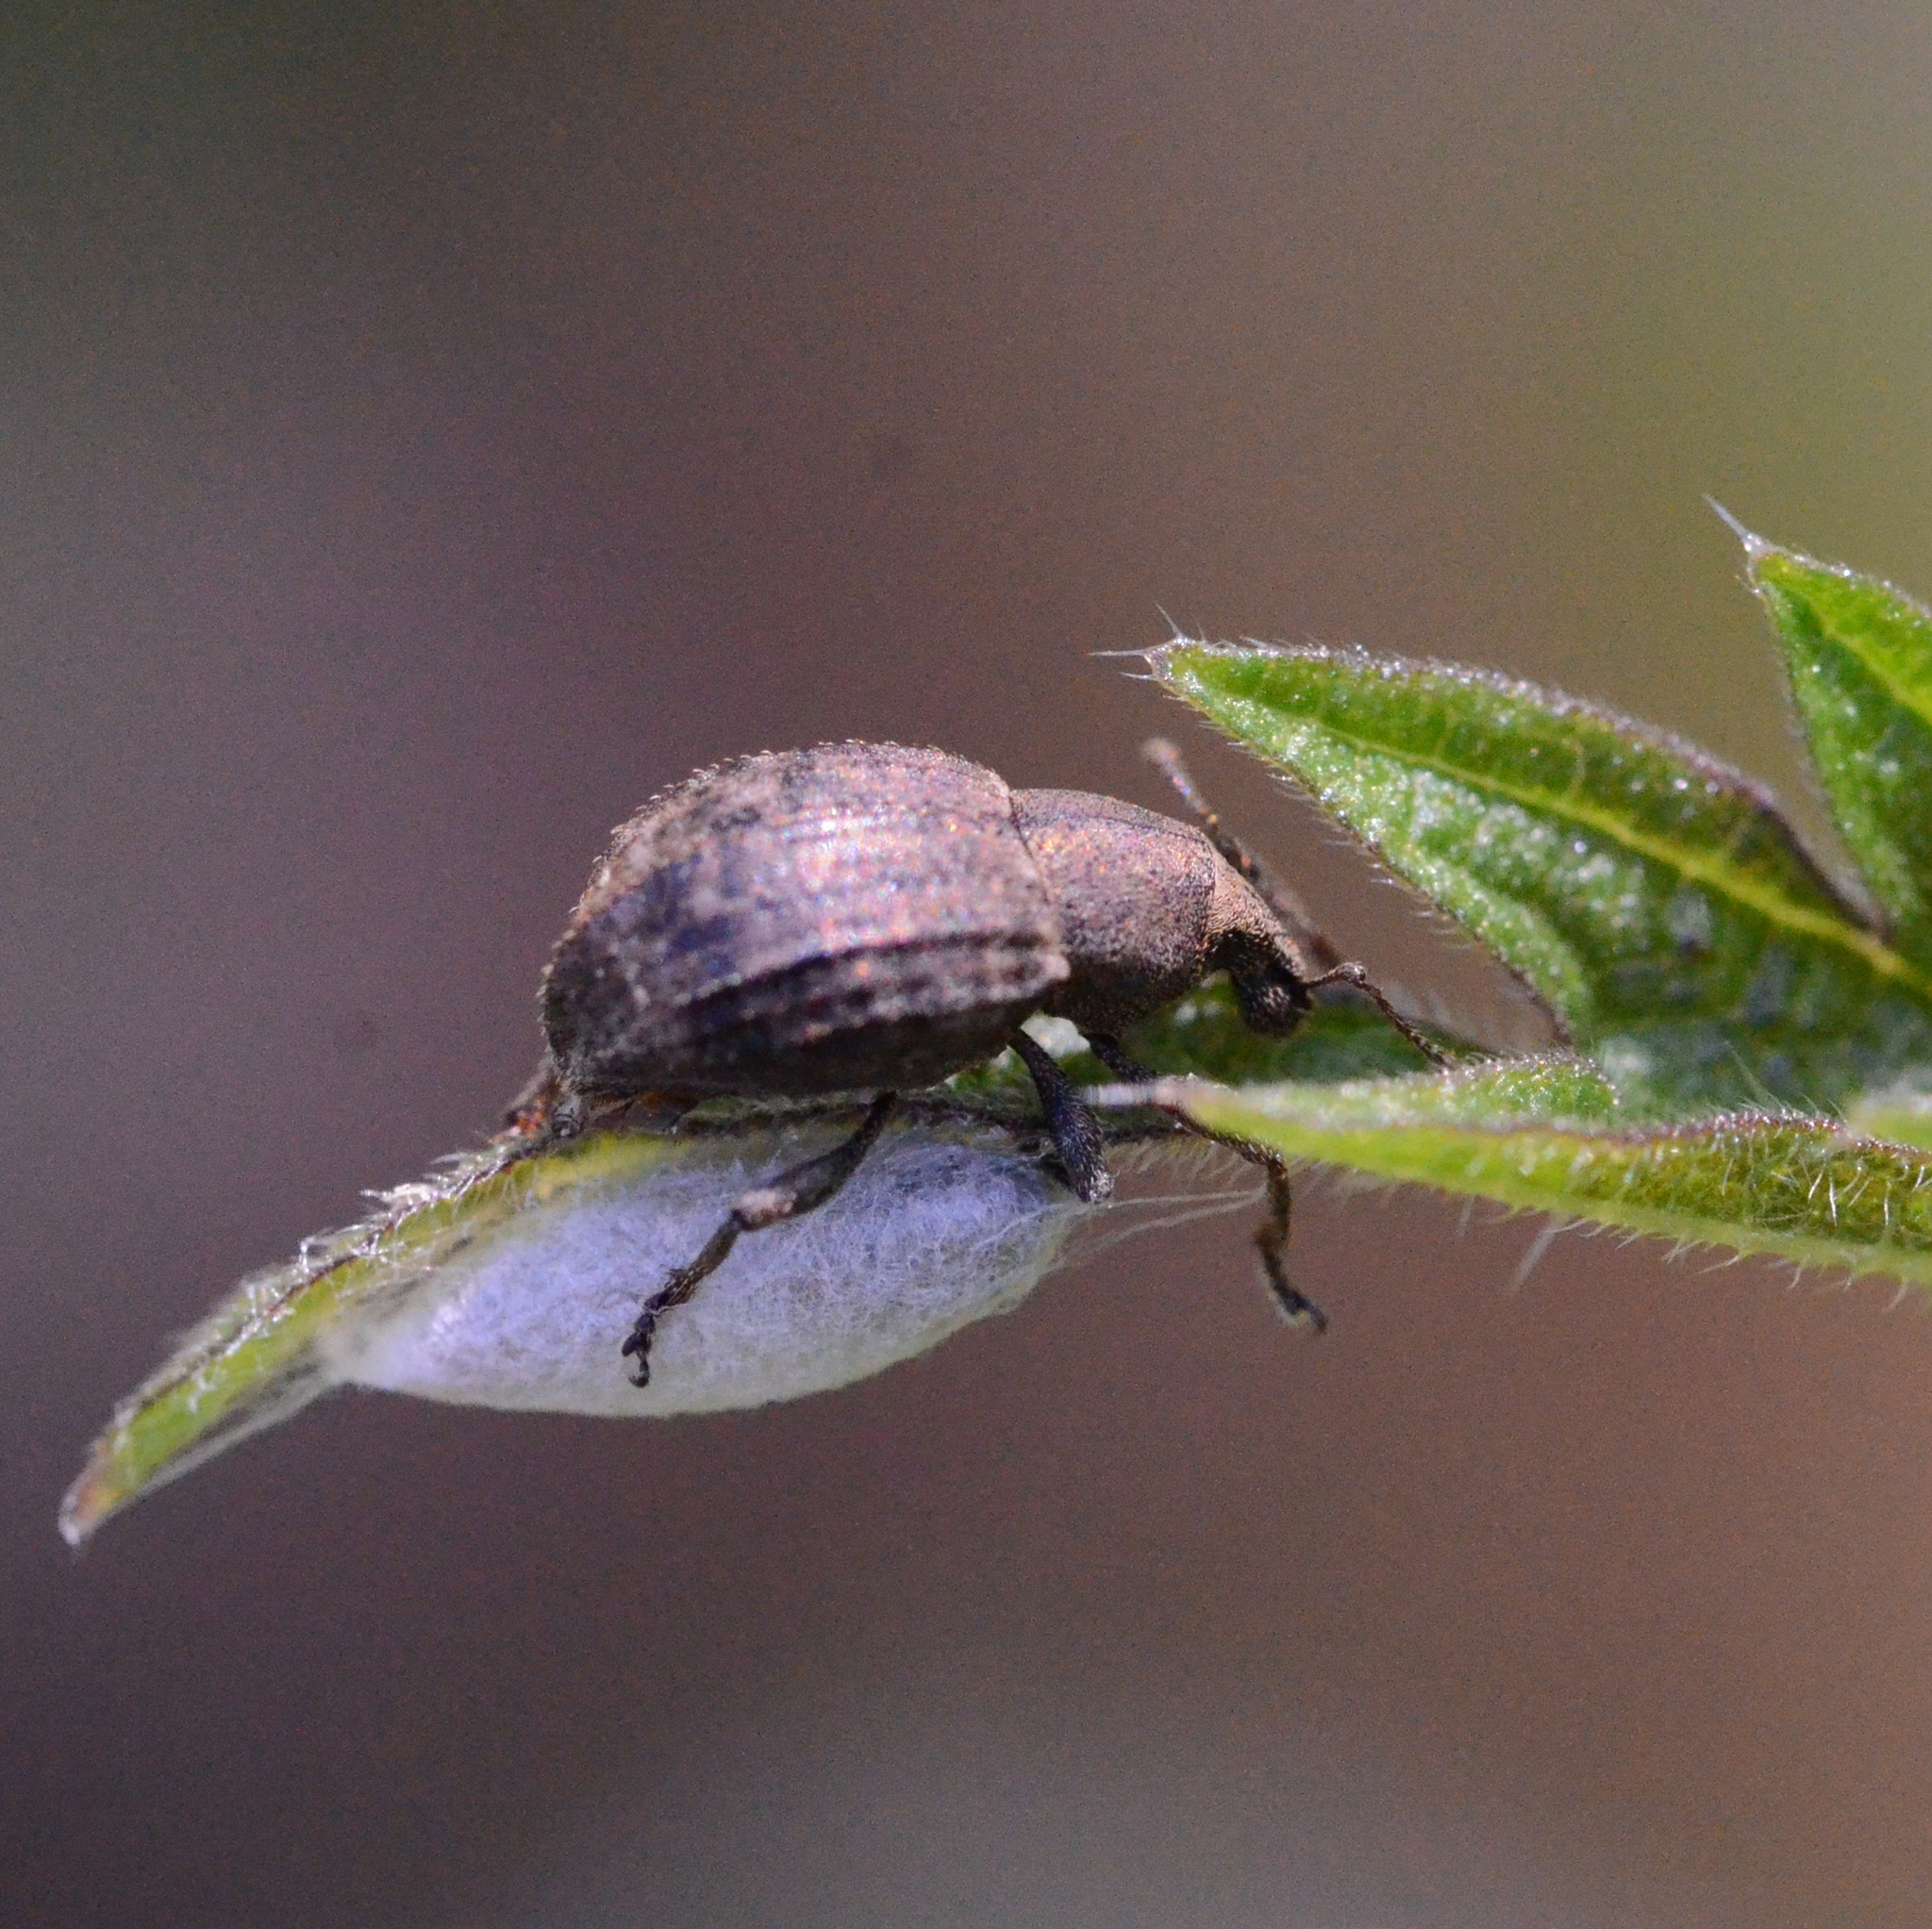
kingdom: Animalia
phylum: Arthropoda
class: Insecta
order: Coleoptera
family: Curculionidae
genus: Tropiphorus
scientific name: Tropiphorus elevatus
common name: Weevil
